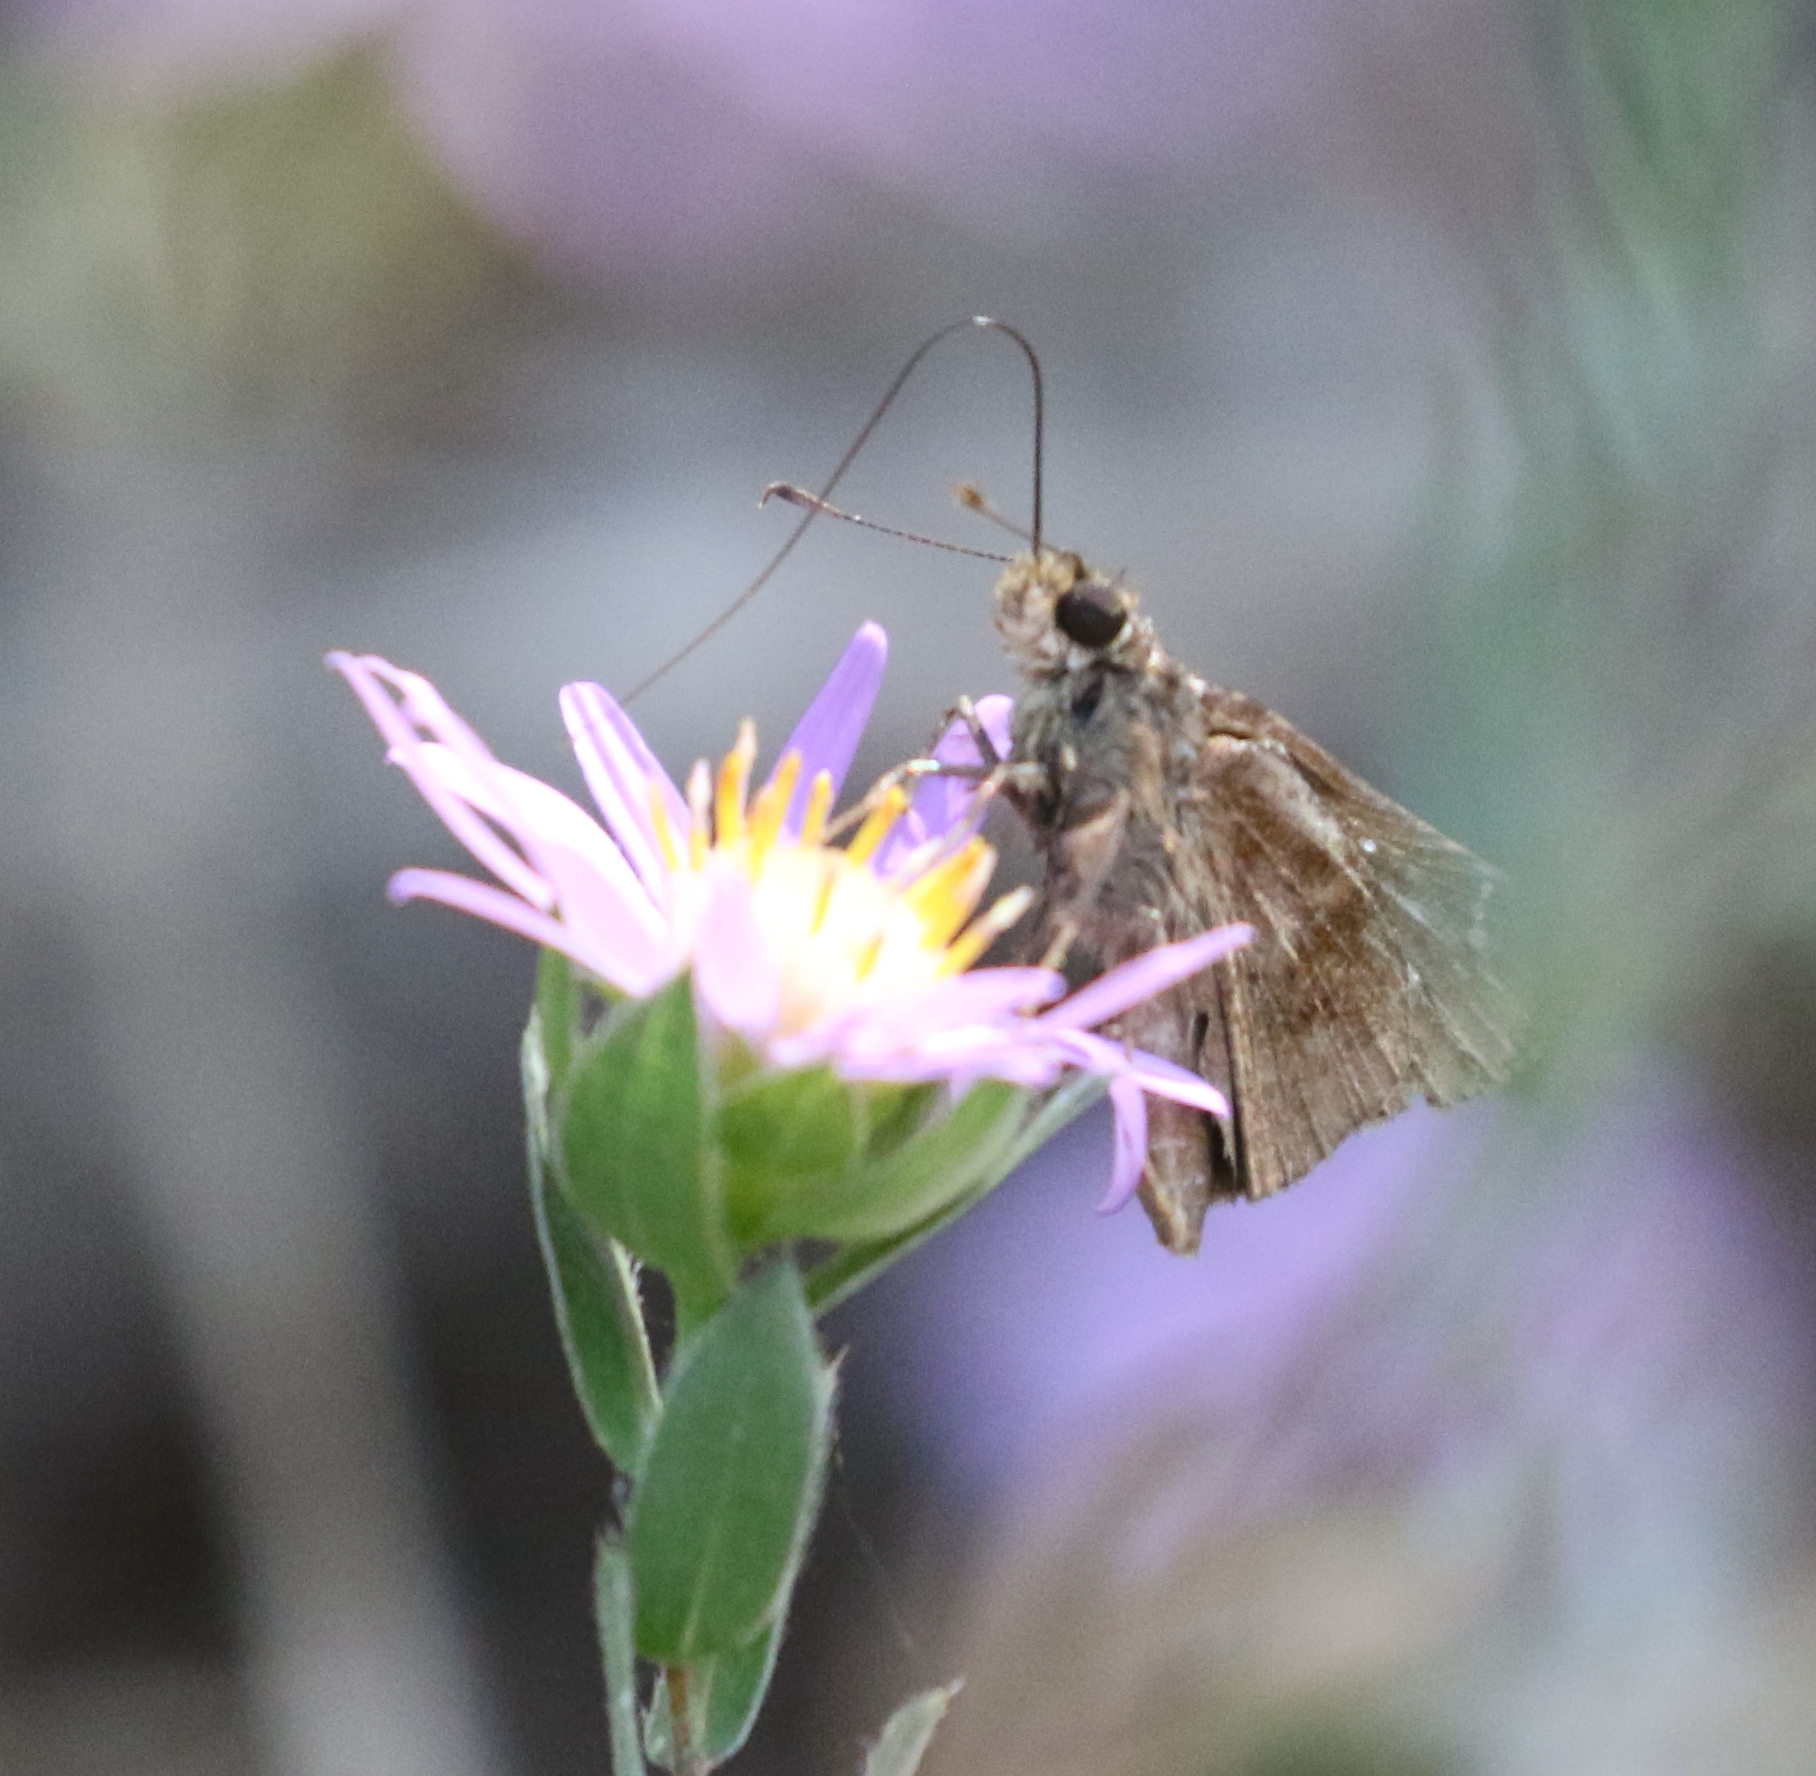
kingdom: Animalia
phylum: Arthropoda
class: Insecta
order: Lepidoptera
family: Hesperiidae
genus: Lerema
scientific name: Lerema accius
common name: Clouded skipper
